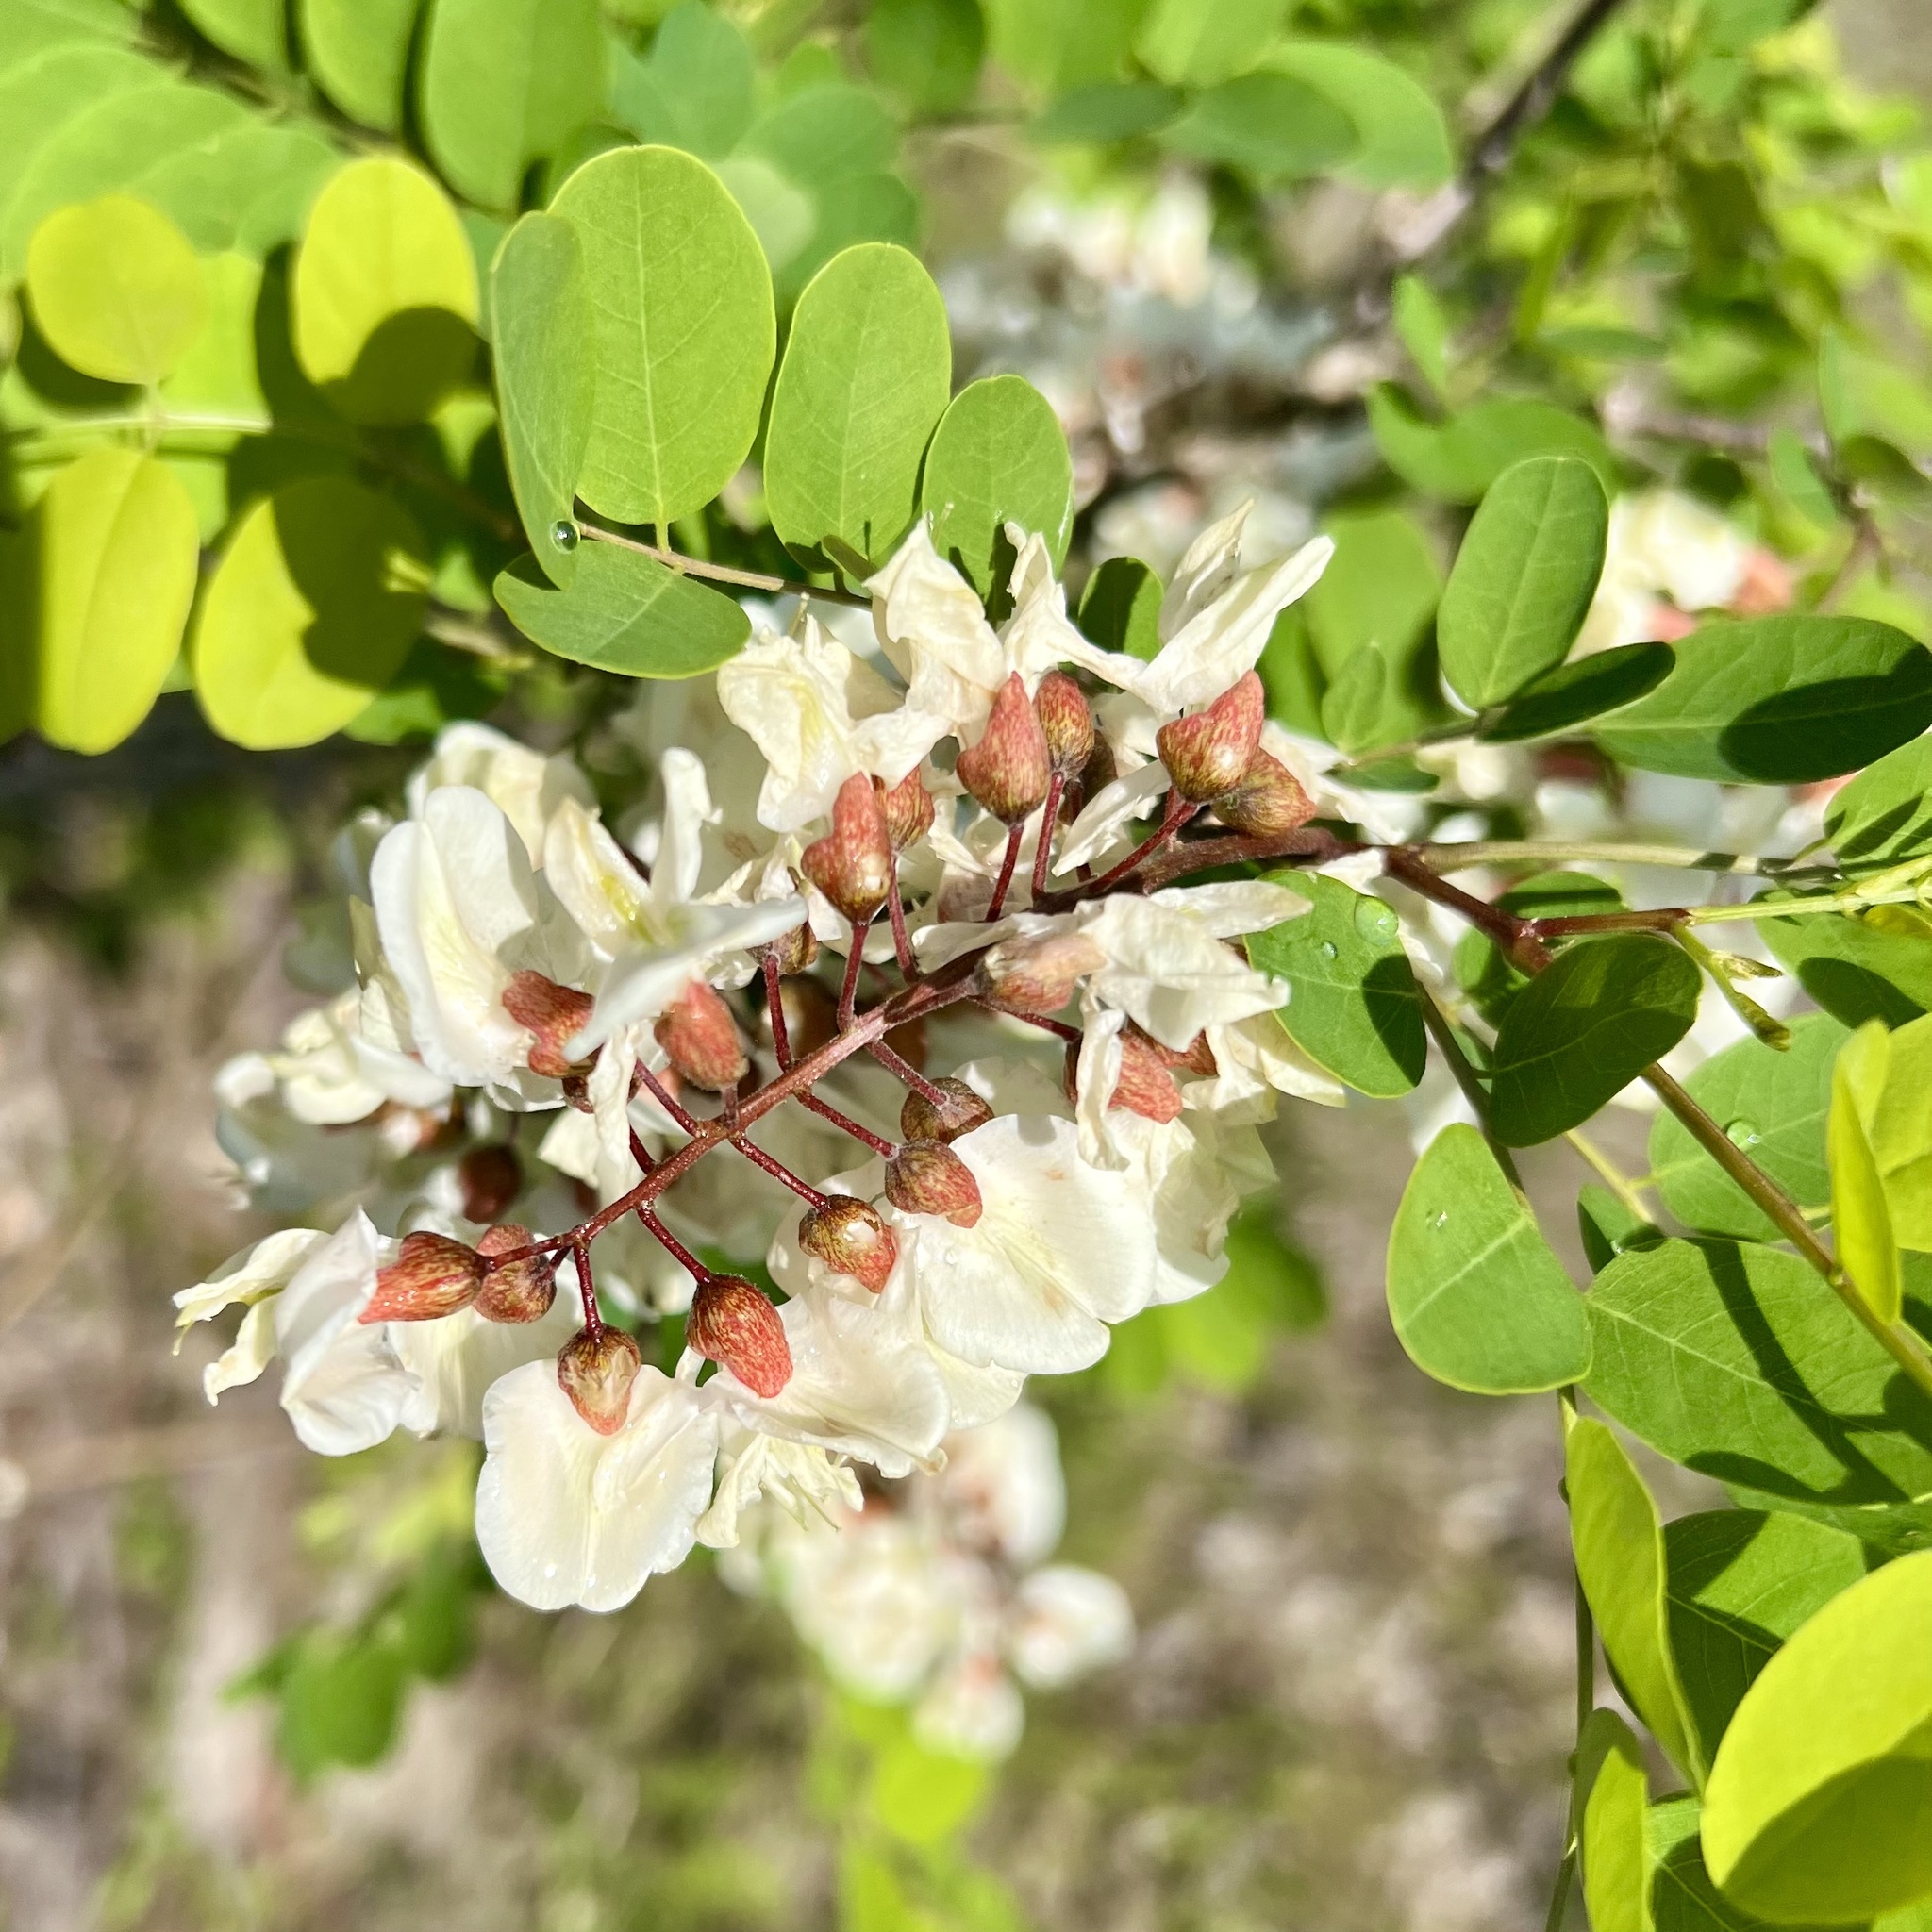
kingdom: Plantae
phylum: Tracheophyta
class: Magnoliopsida
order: Fabales
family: Fabaceae
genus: Robinia
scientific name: Robinia pseudoacacia
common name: Black locust
